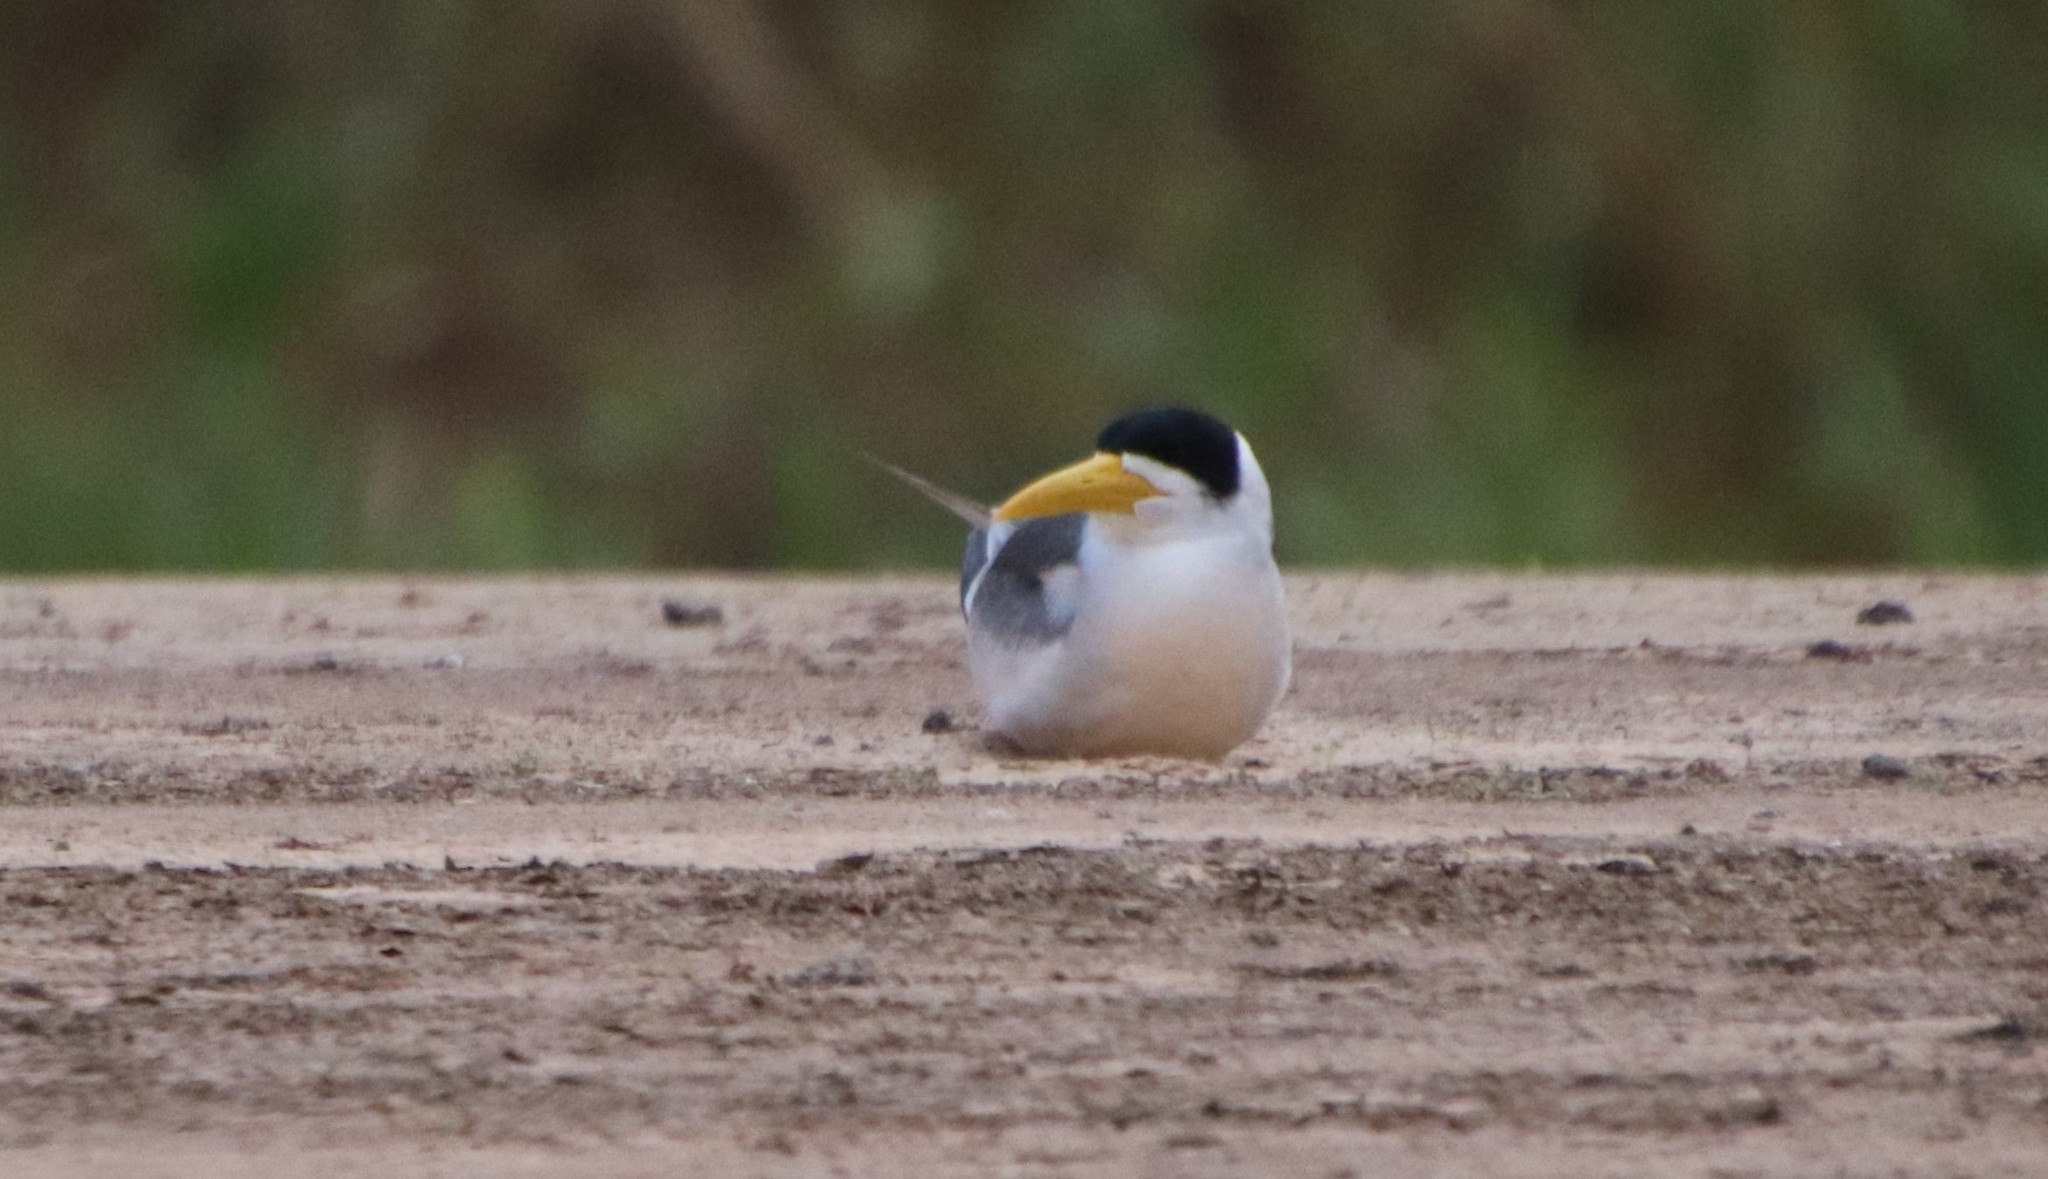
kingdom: Animalia
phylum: Chordata
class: Aves
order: Charadriiformes
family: Laridae
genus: Phaetusa
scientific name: Phaetusa simplex
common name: Large-billed tern
